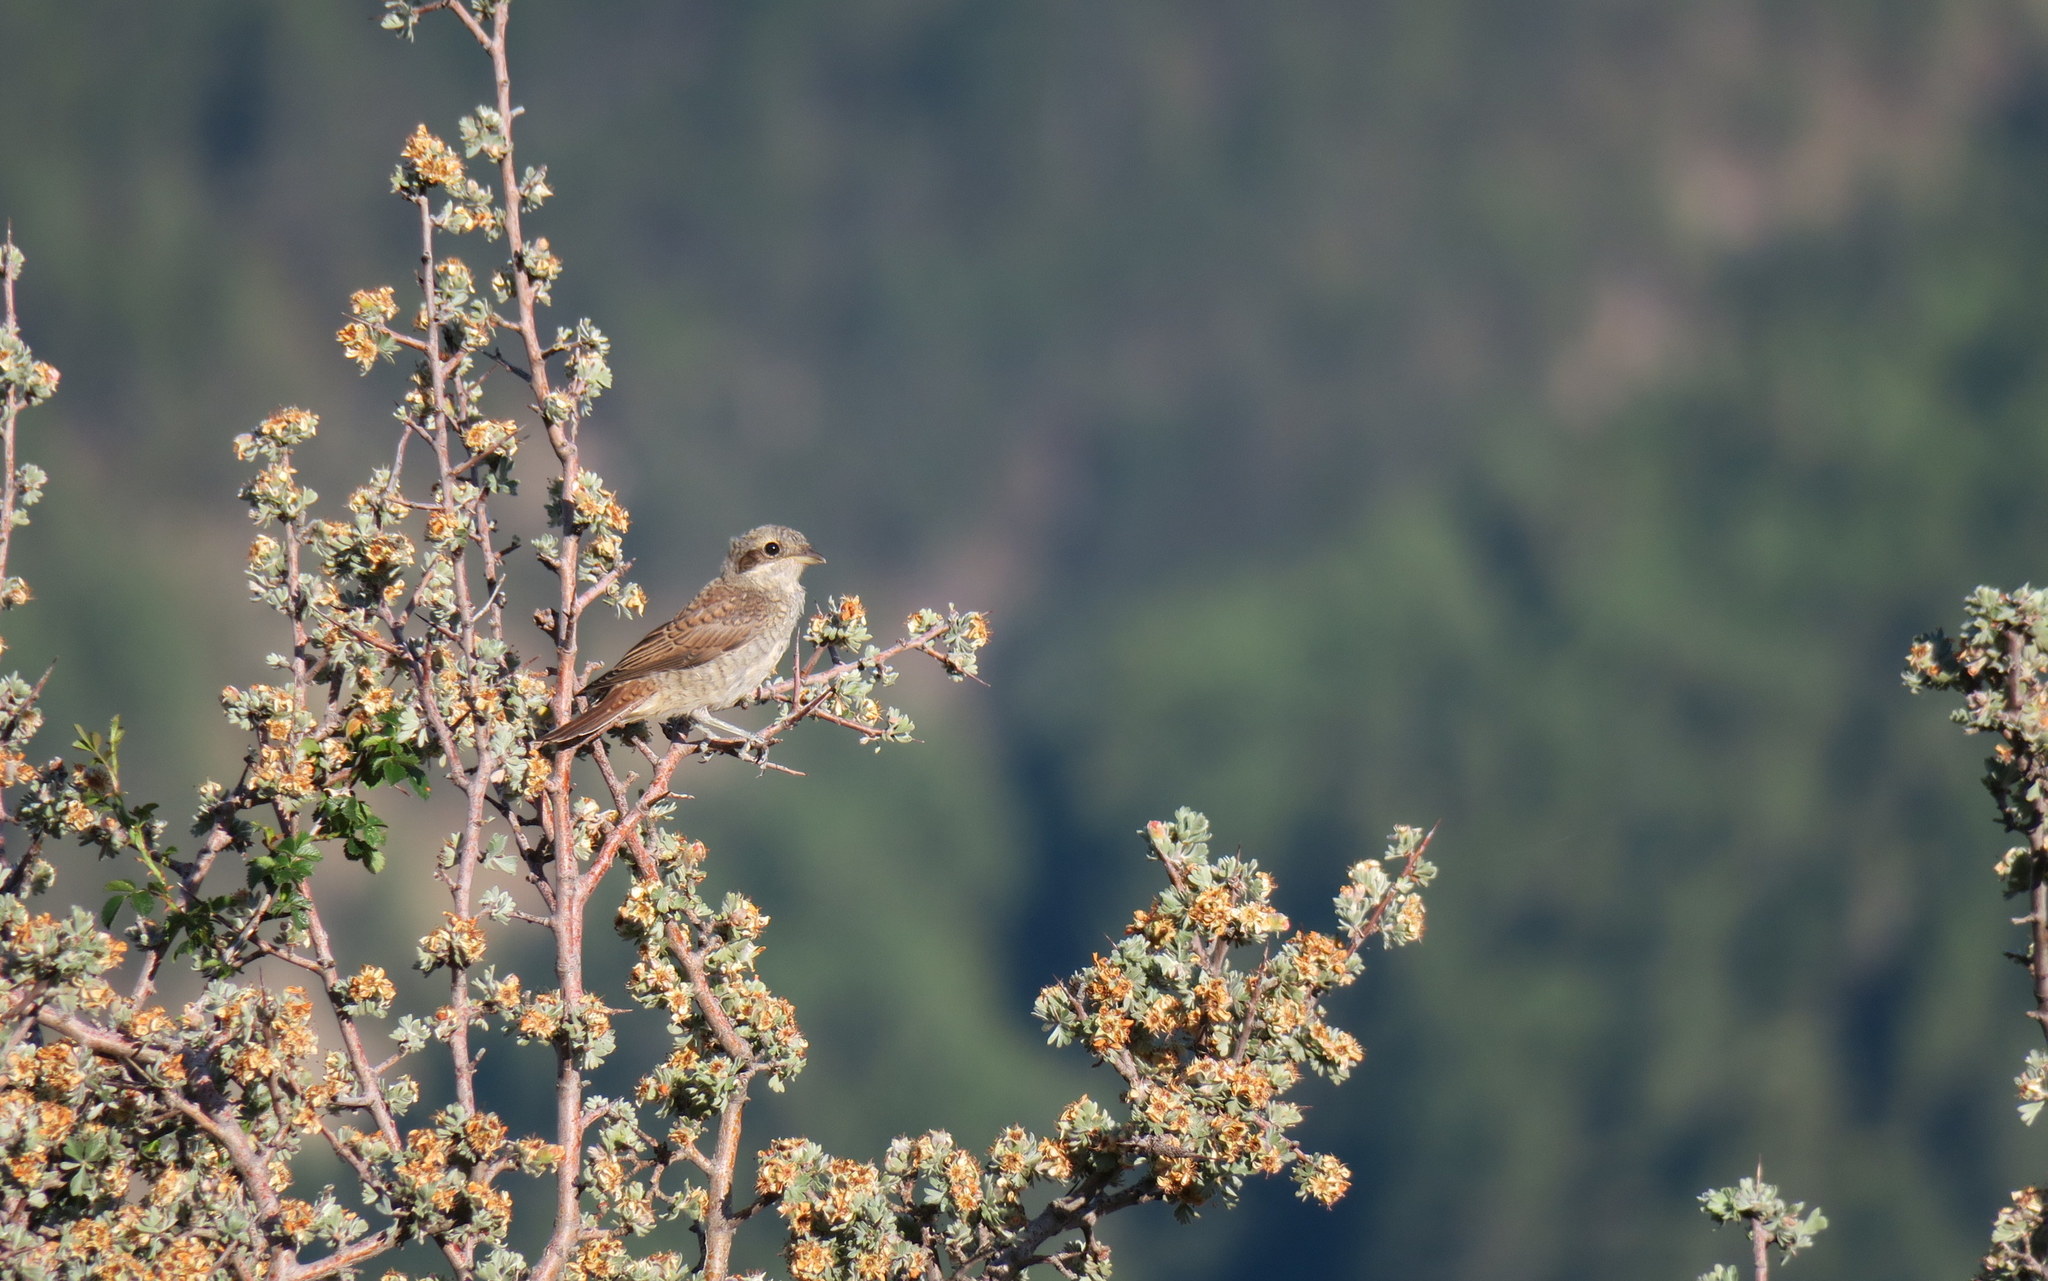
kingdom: Animalia
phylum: Chordata
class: Aves
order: Passeriformes
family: Laniidae
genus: Lanius
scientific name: Lanius collurio
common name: Red-backed shrike
